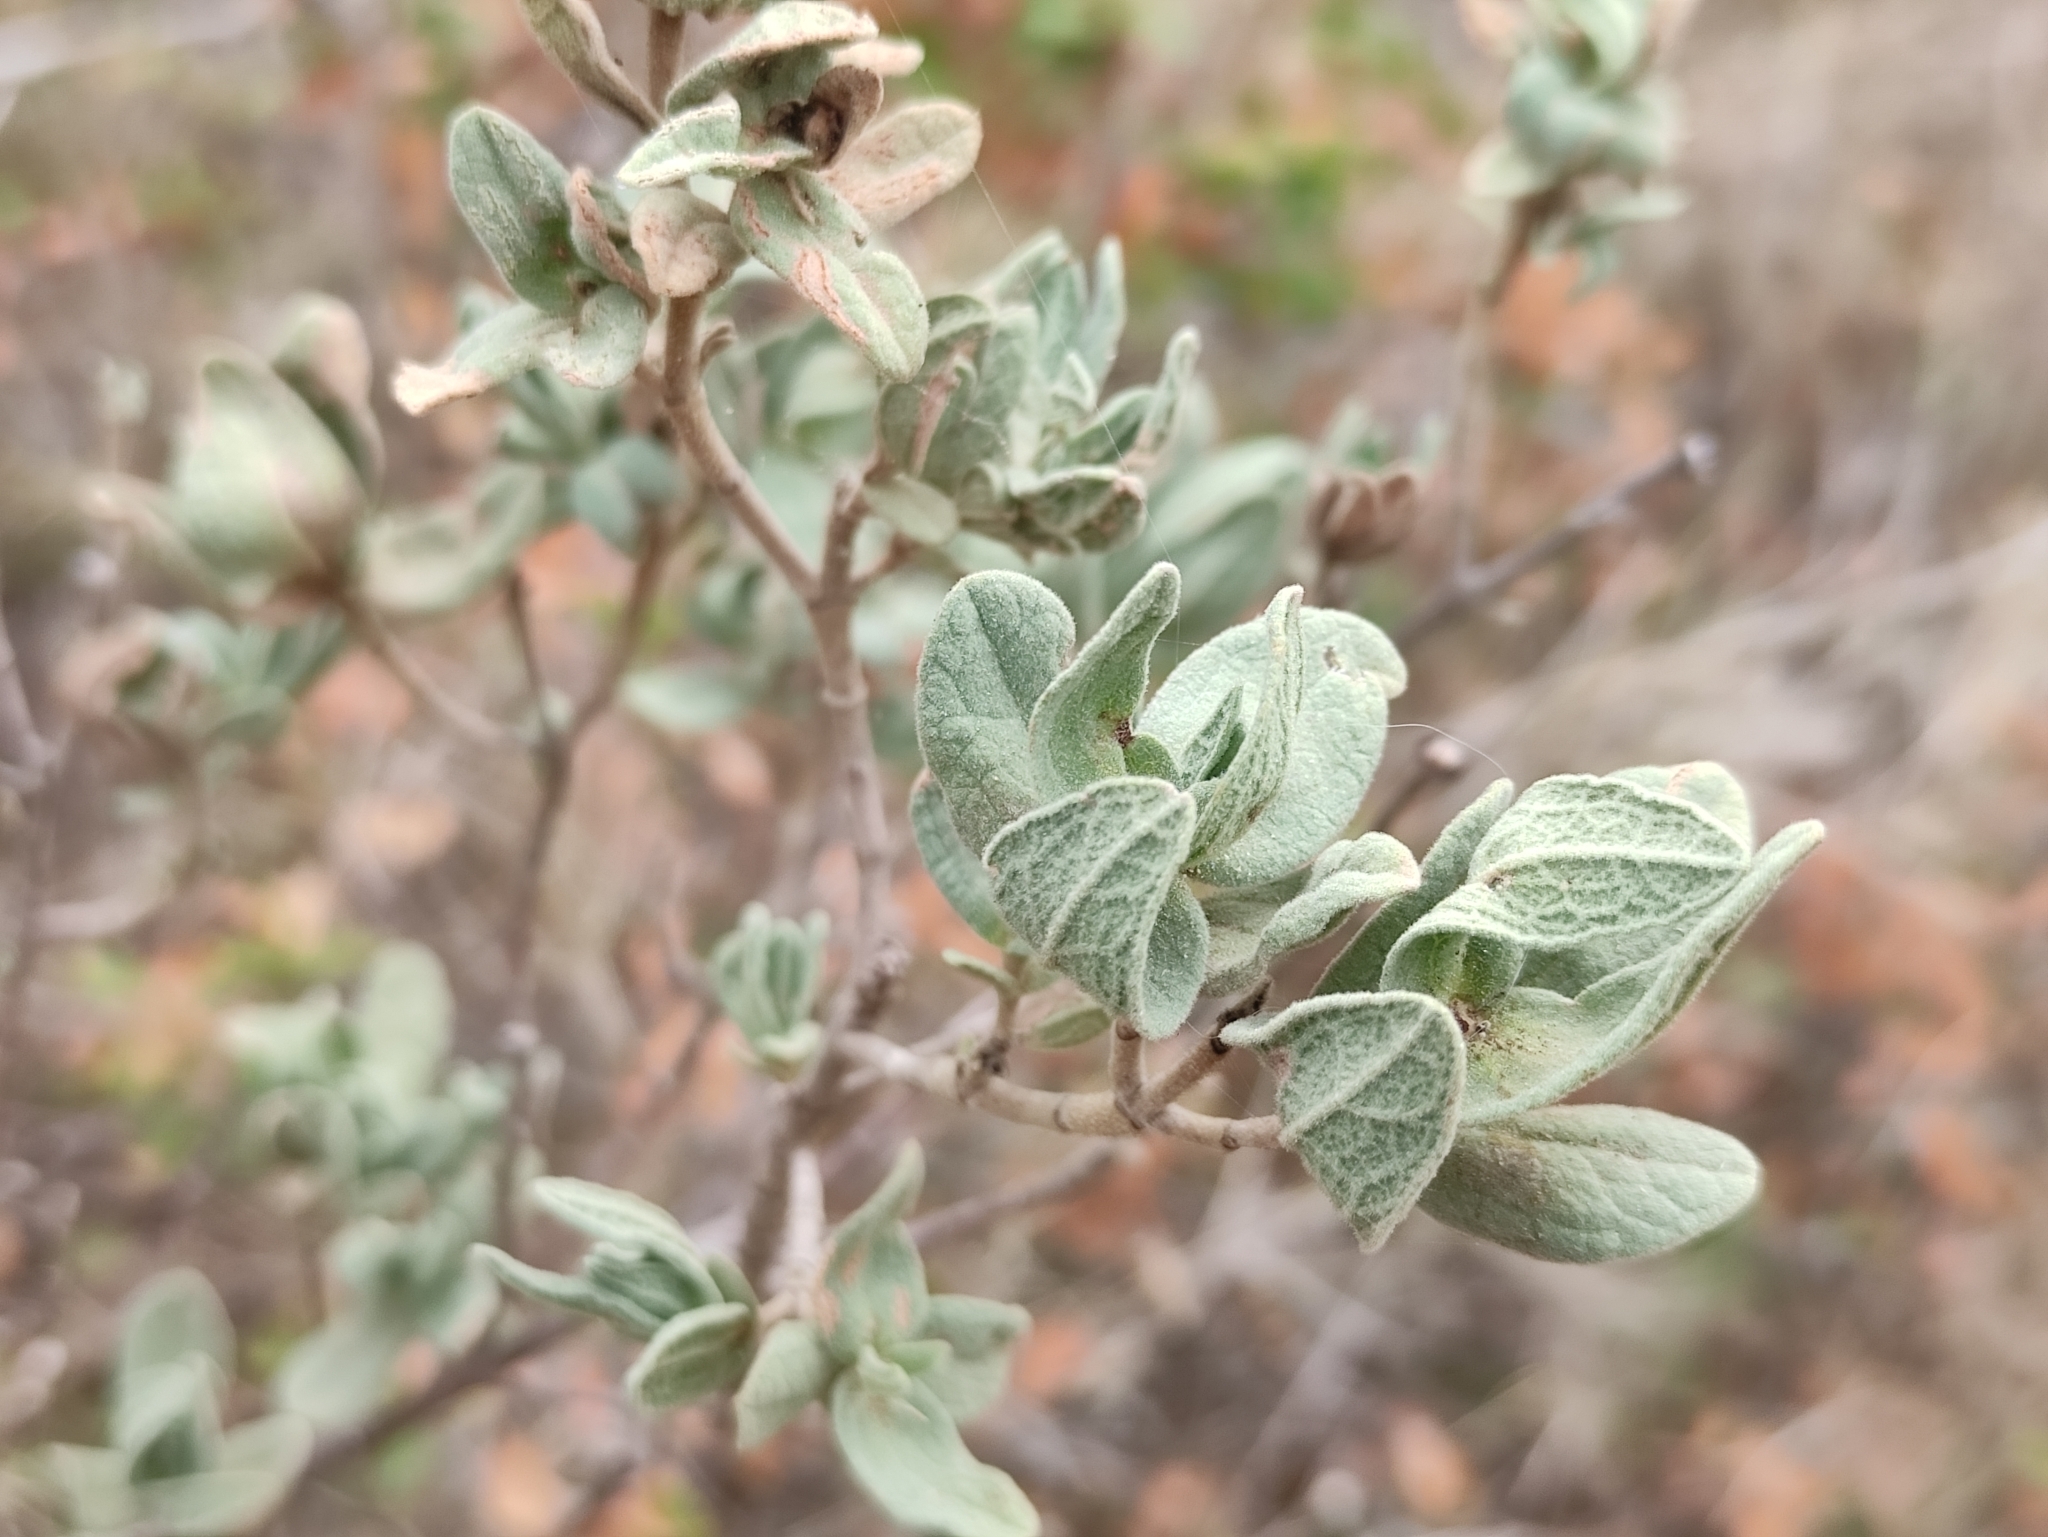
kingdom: Plantae
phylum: Tracheophyta
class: Magnoliopsida
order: Malvales
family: Cistaceae
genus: Cistus
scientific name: Cistus albidus
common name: White-leaf rock-rose
